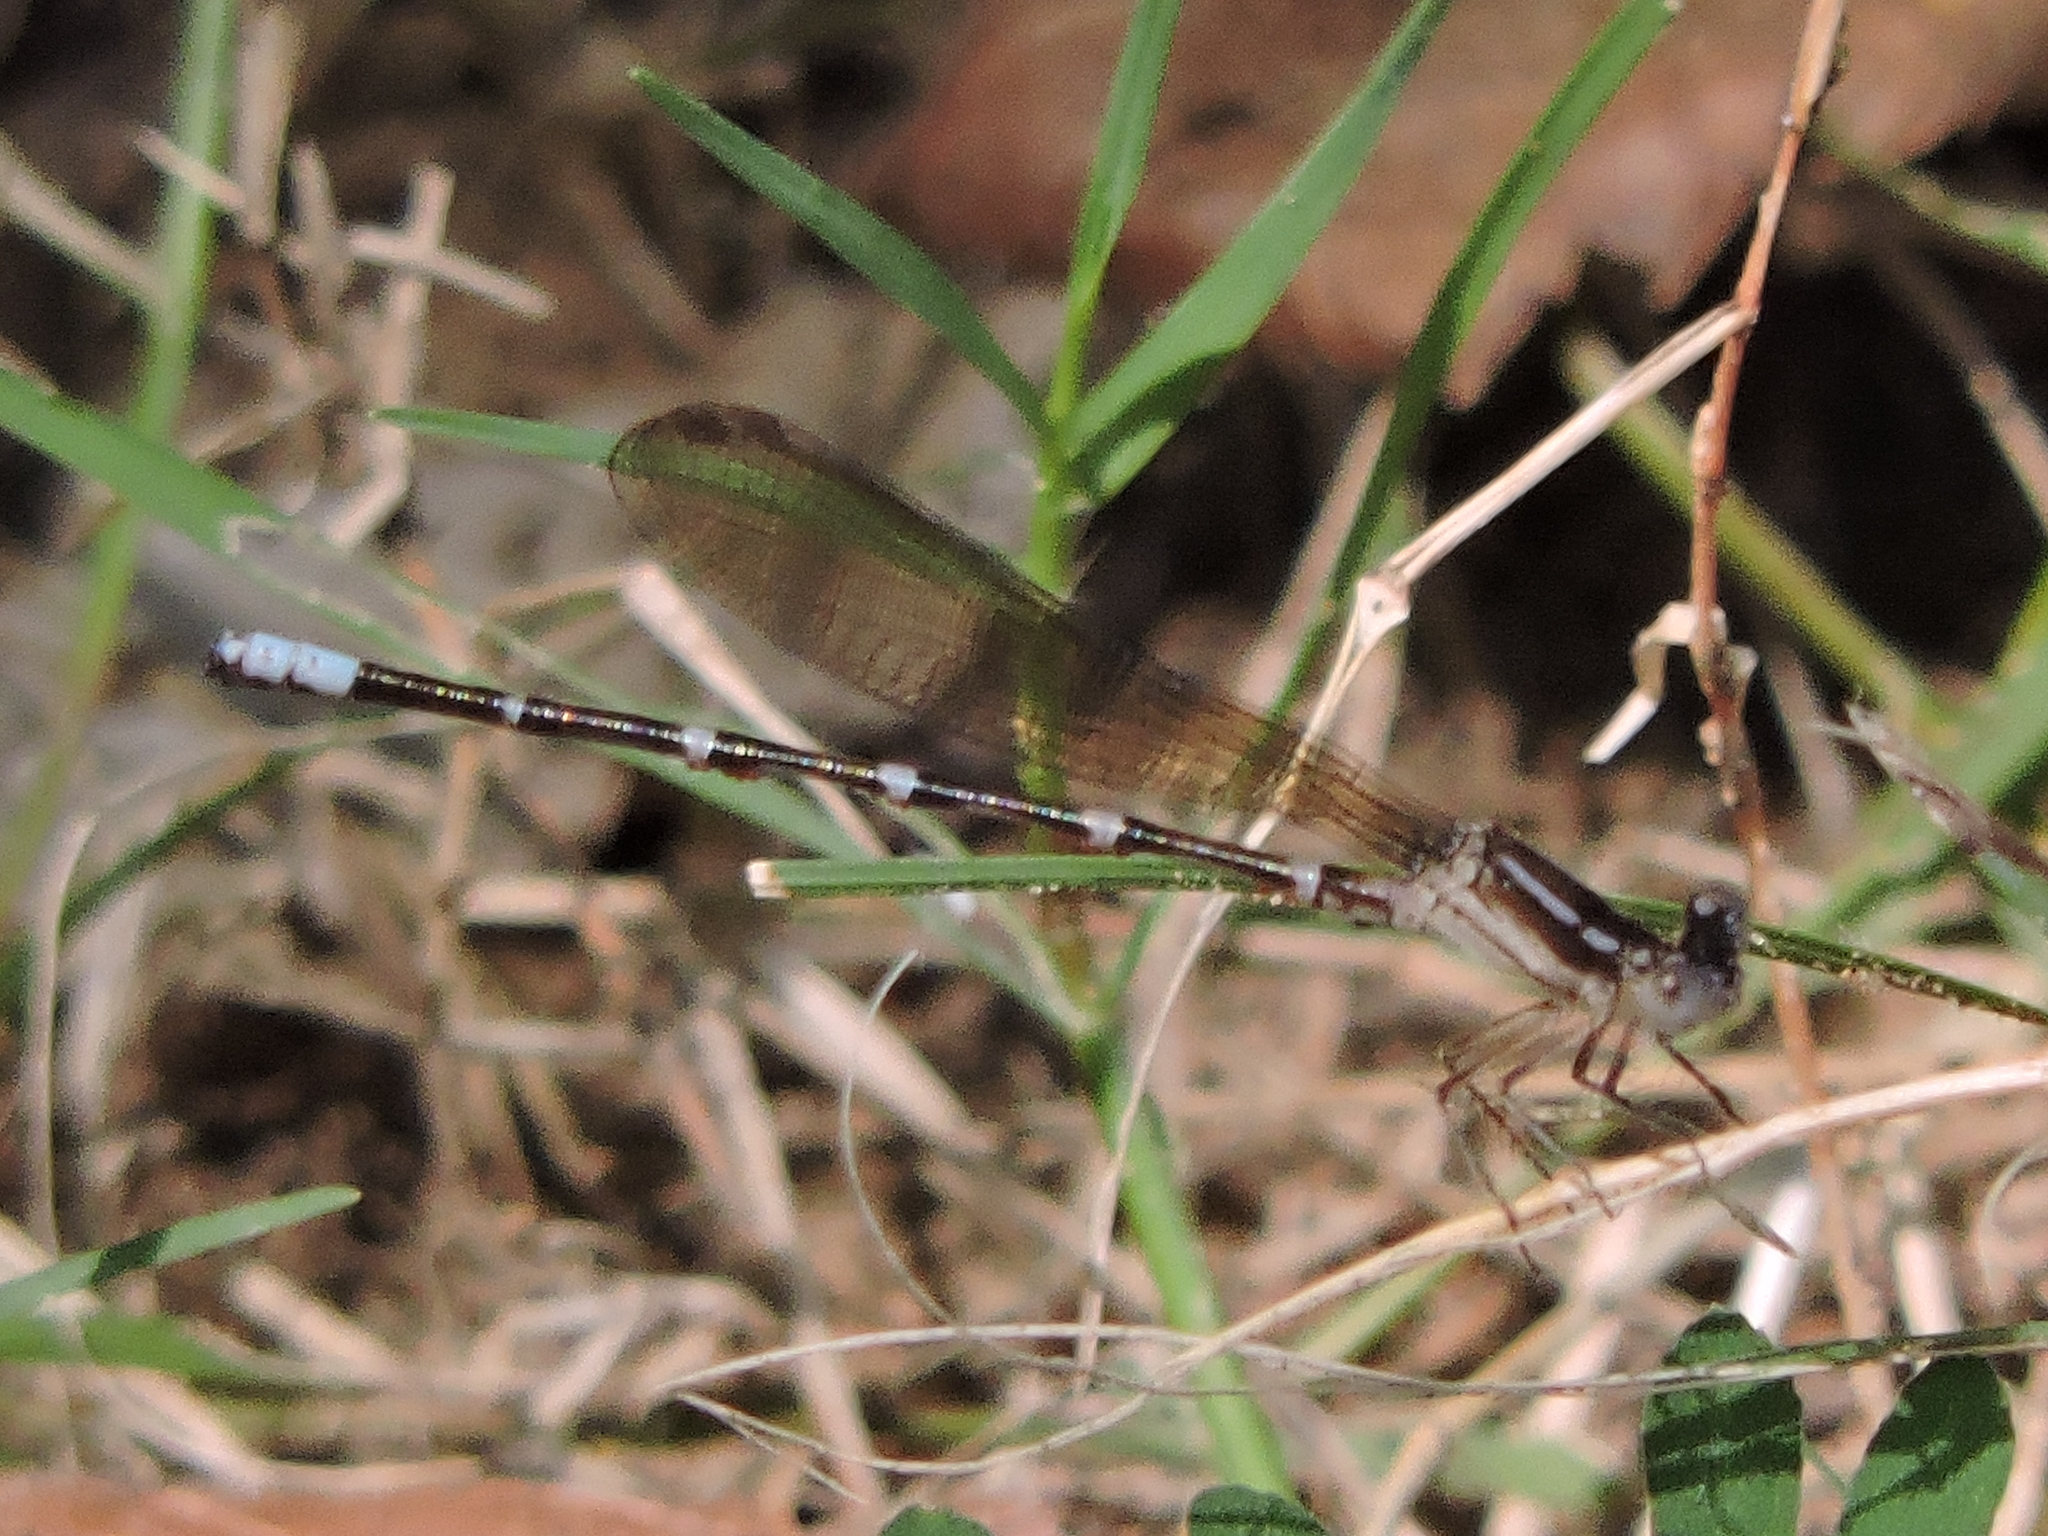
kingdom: Animalia
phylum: Arthropoda
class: Insecta
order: Odonata
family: Coenagrionidae
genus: Argia
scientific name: Argia sedula
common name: Blue-ringed dancer
